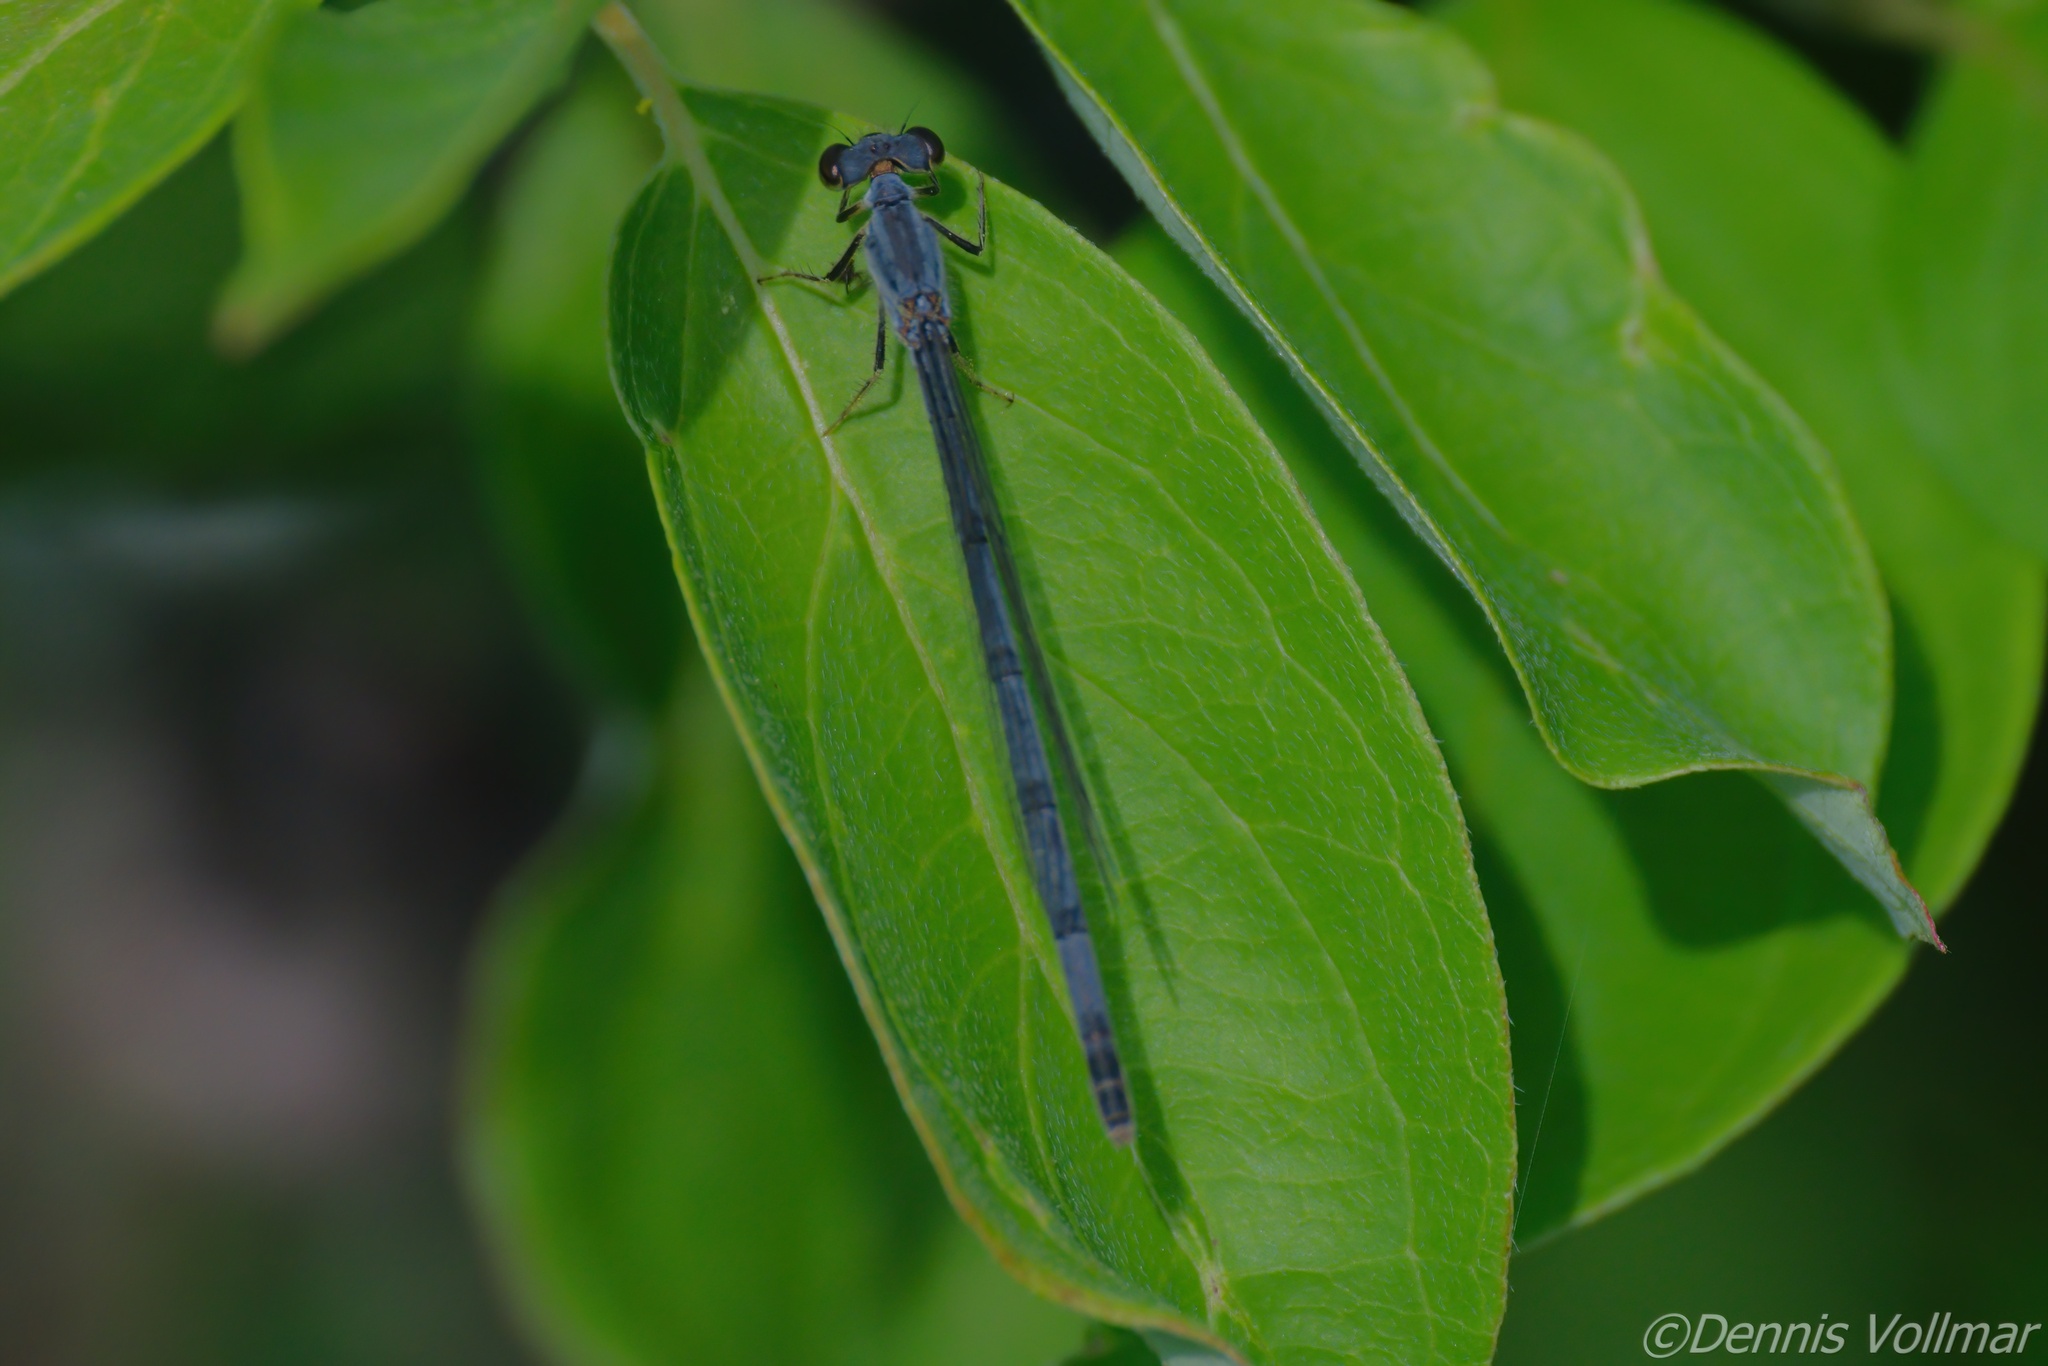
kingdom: Animalia
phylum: Arthropoda
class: Insecta
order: Odonata
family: Coenagrionidae
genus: Ischnura
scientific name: Ischnura posita
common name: Fragile forktail
